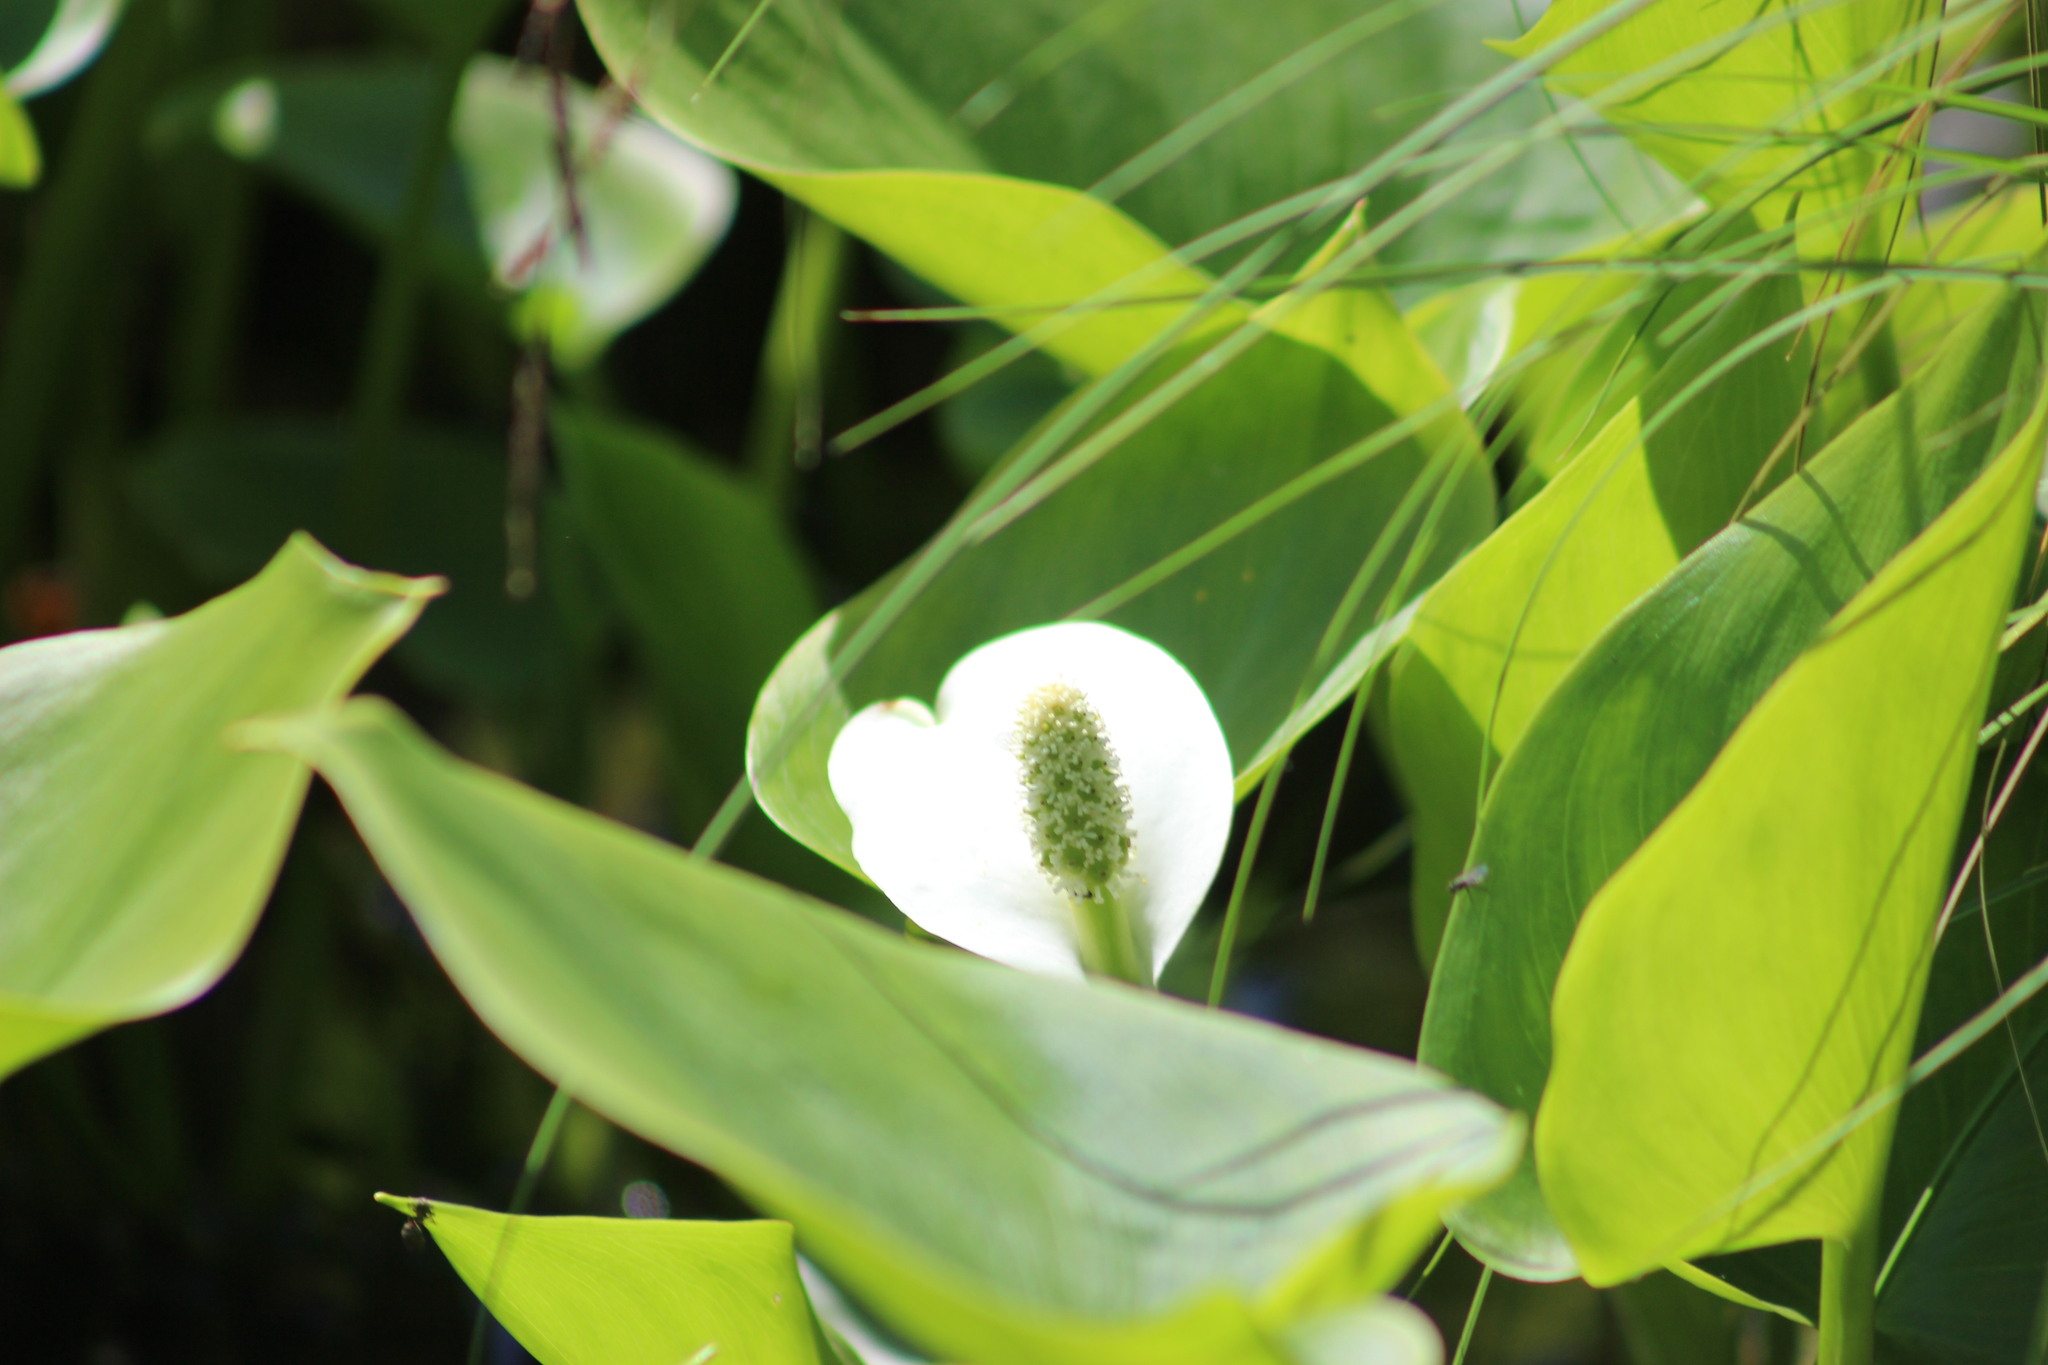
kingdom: Plantae
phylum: Tracheophyta
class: Liliopsida
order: Alismatales
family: Araceae
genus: Calla
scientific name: Calla palustris
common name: Bog arum
